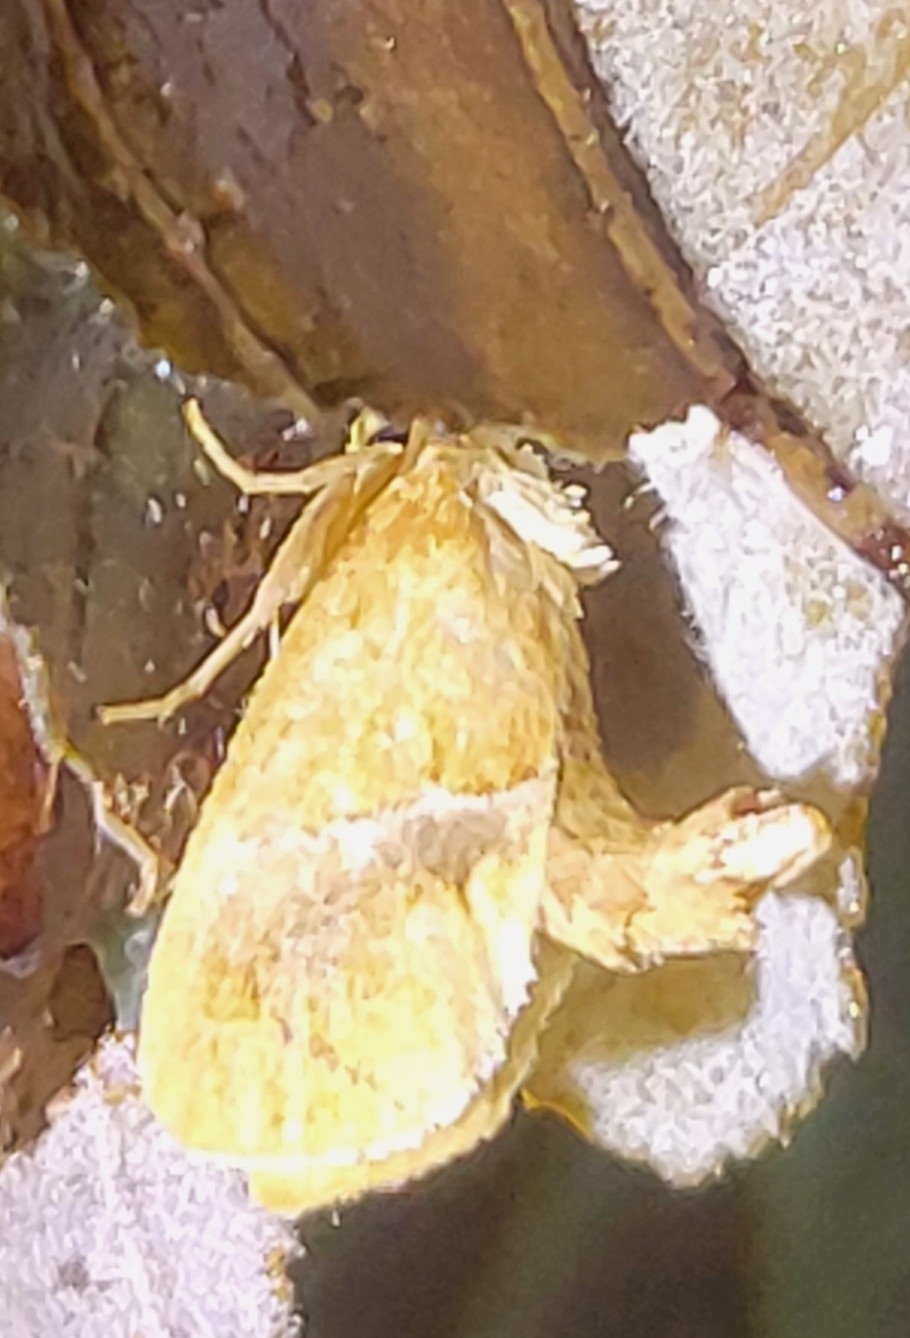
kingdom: Animalia
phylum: Arthropoda
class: Insecta
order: Lepidoptera
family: Limacodidae
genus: Lithacodes
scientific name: Lithacodes fasciola
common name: Yellow-shouldered slug moth
